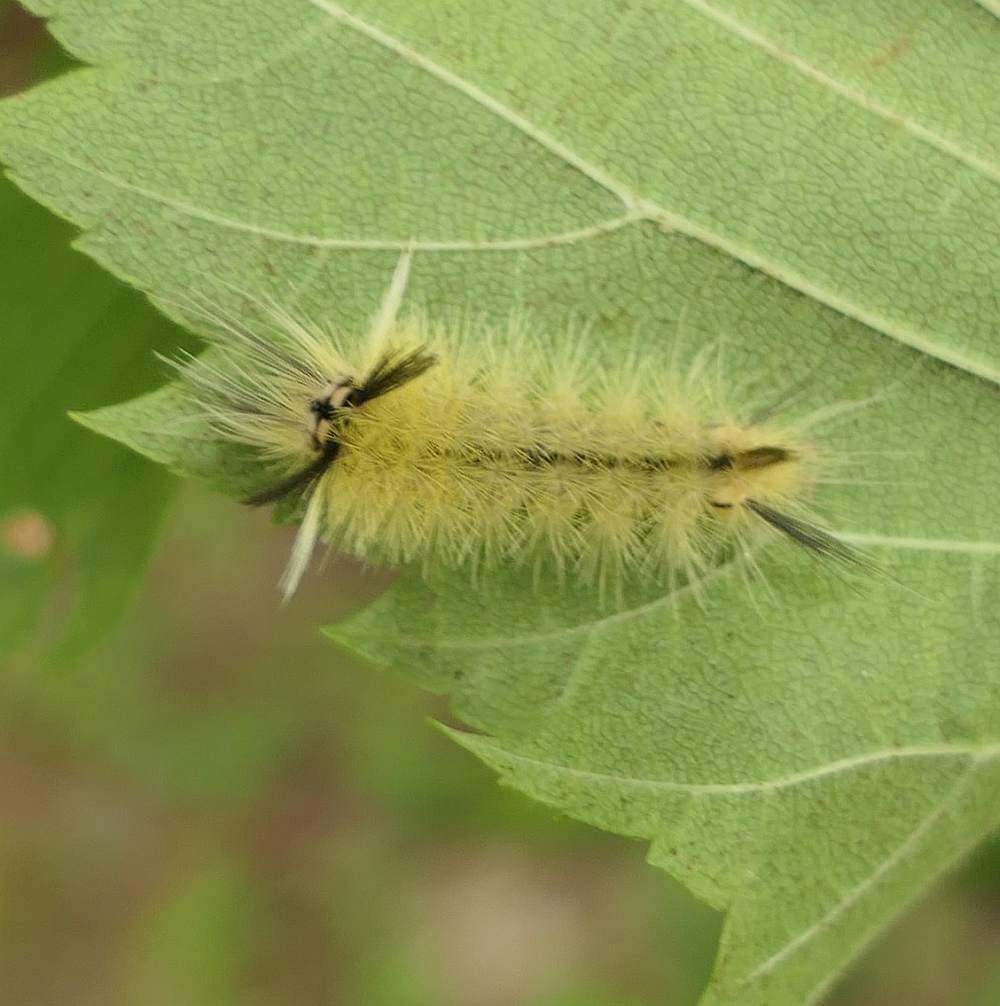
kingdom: Animalia
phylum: Arthropoda
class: Insecta
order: Lepidoptera
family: Erebidae
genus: Halysidota
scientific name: Halysidota tessellaris
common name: Banded tussock moth
